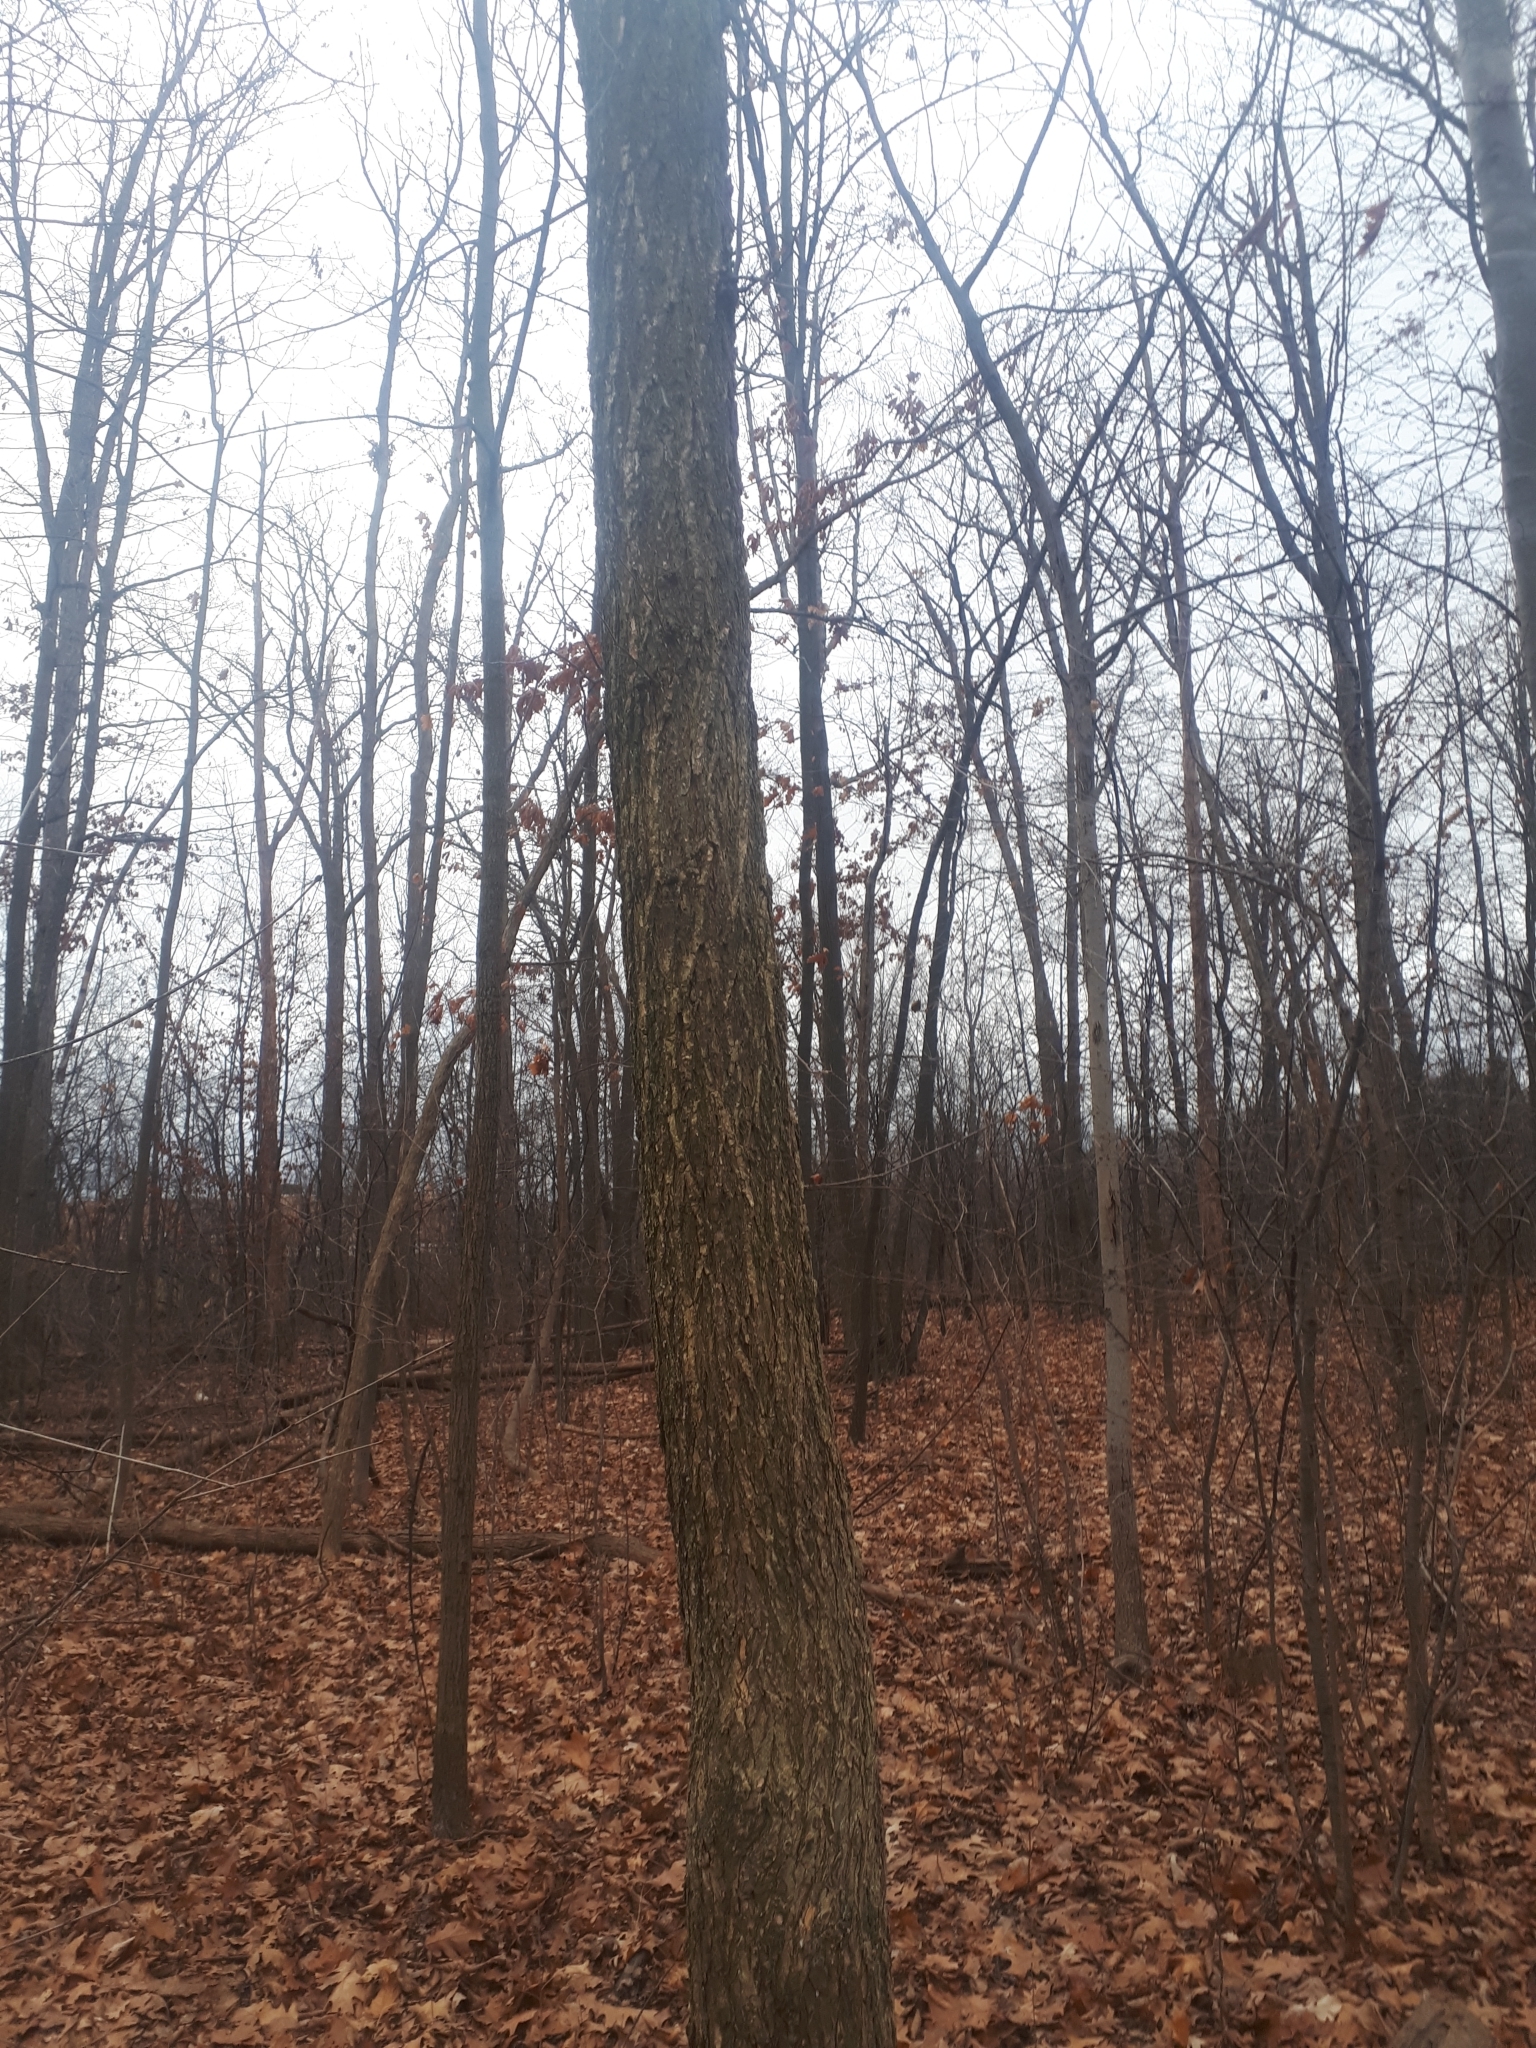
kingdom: Plantae
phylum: Tracheophyta
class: Magnoliopsida
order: Rosales
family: Ulmaceae
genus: Ulmus
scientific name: Ulmus americana
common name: American elm
